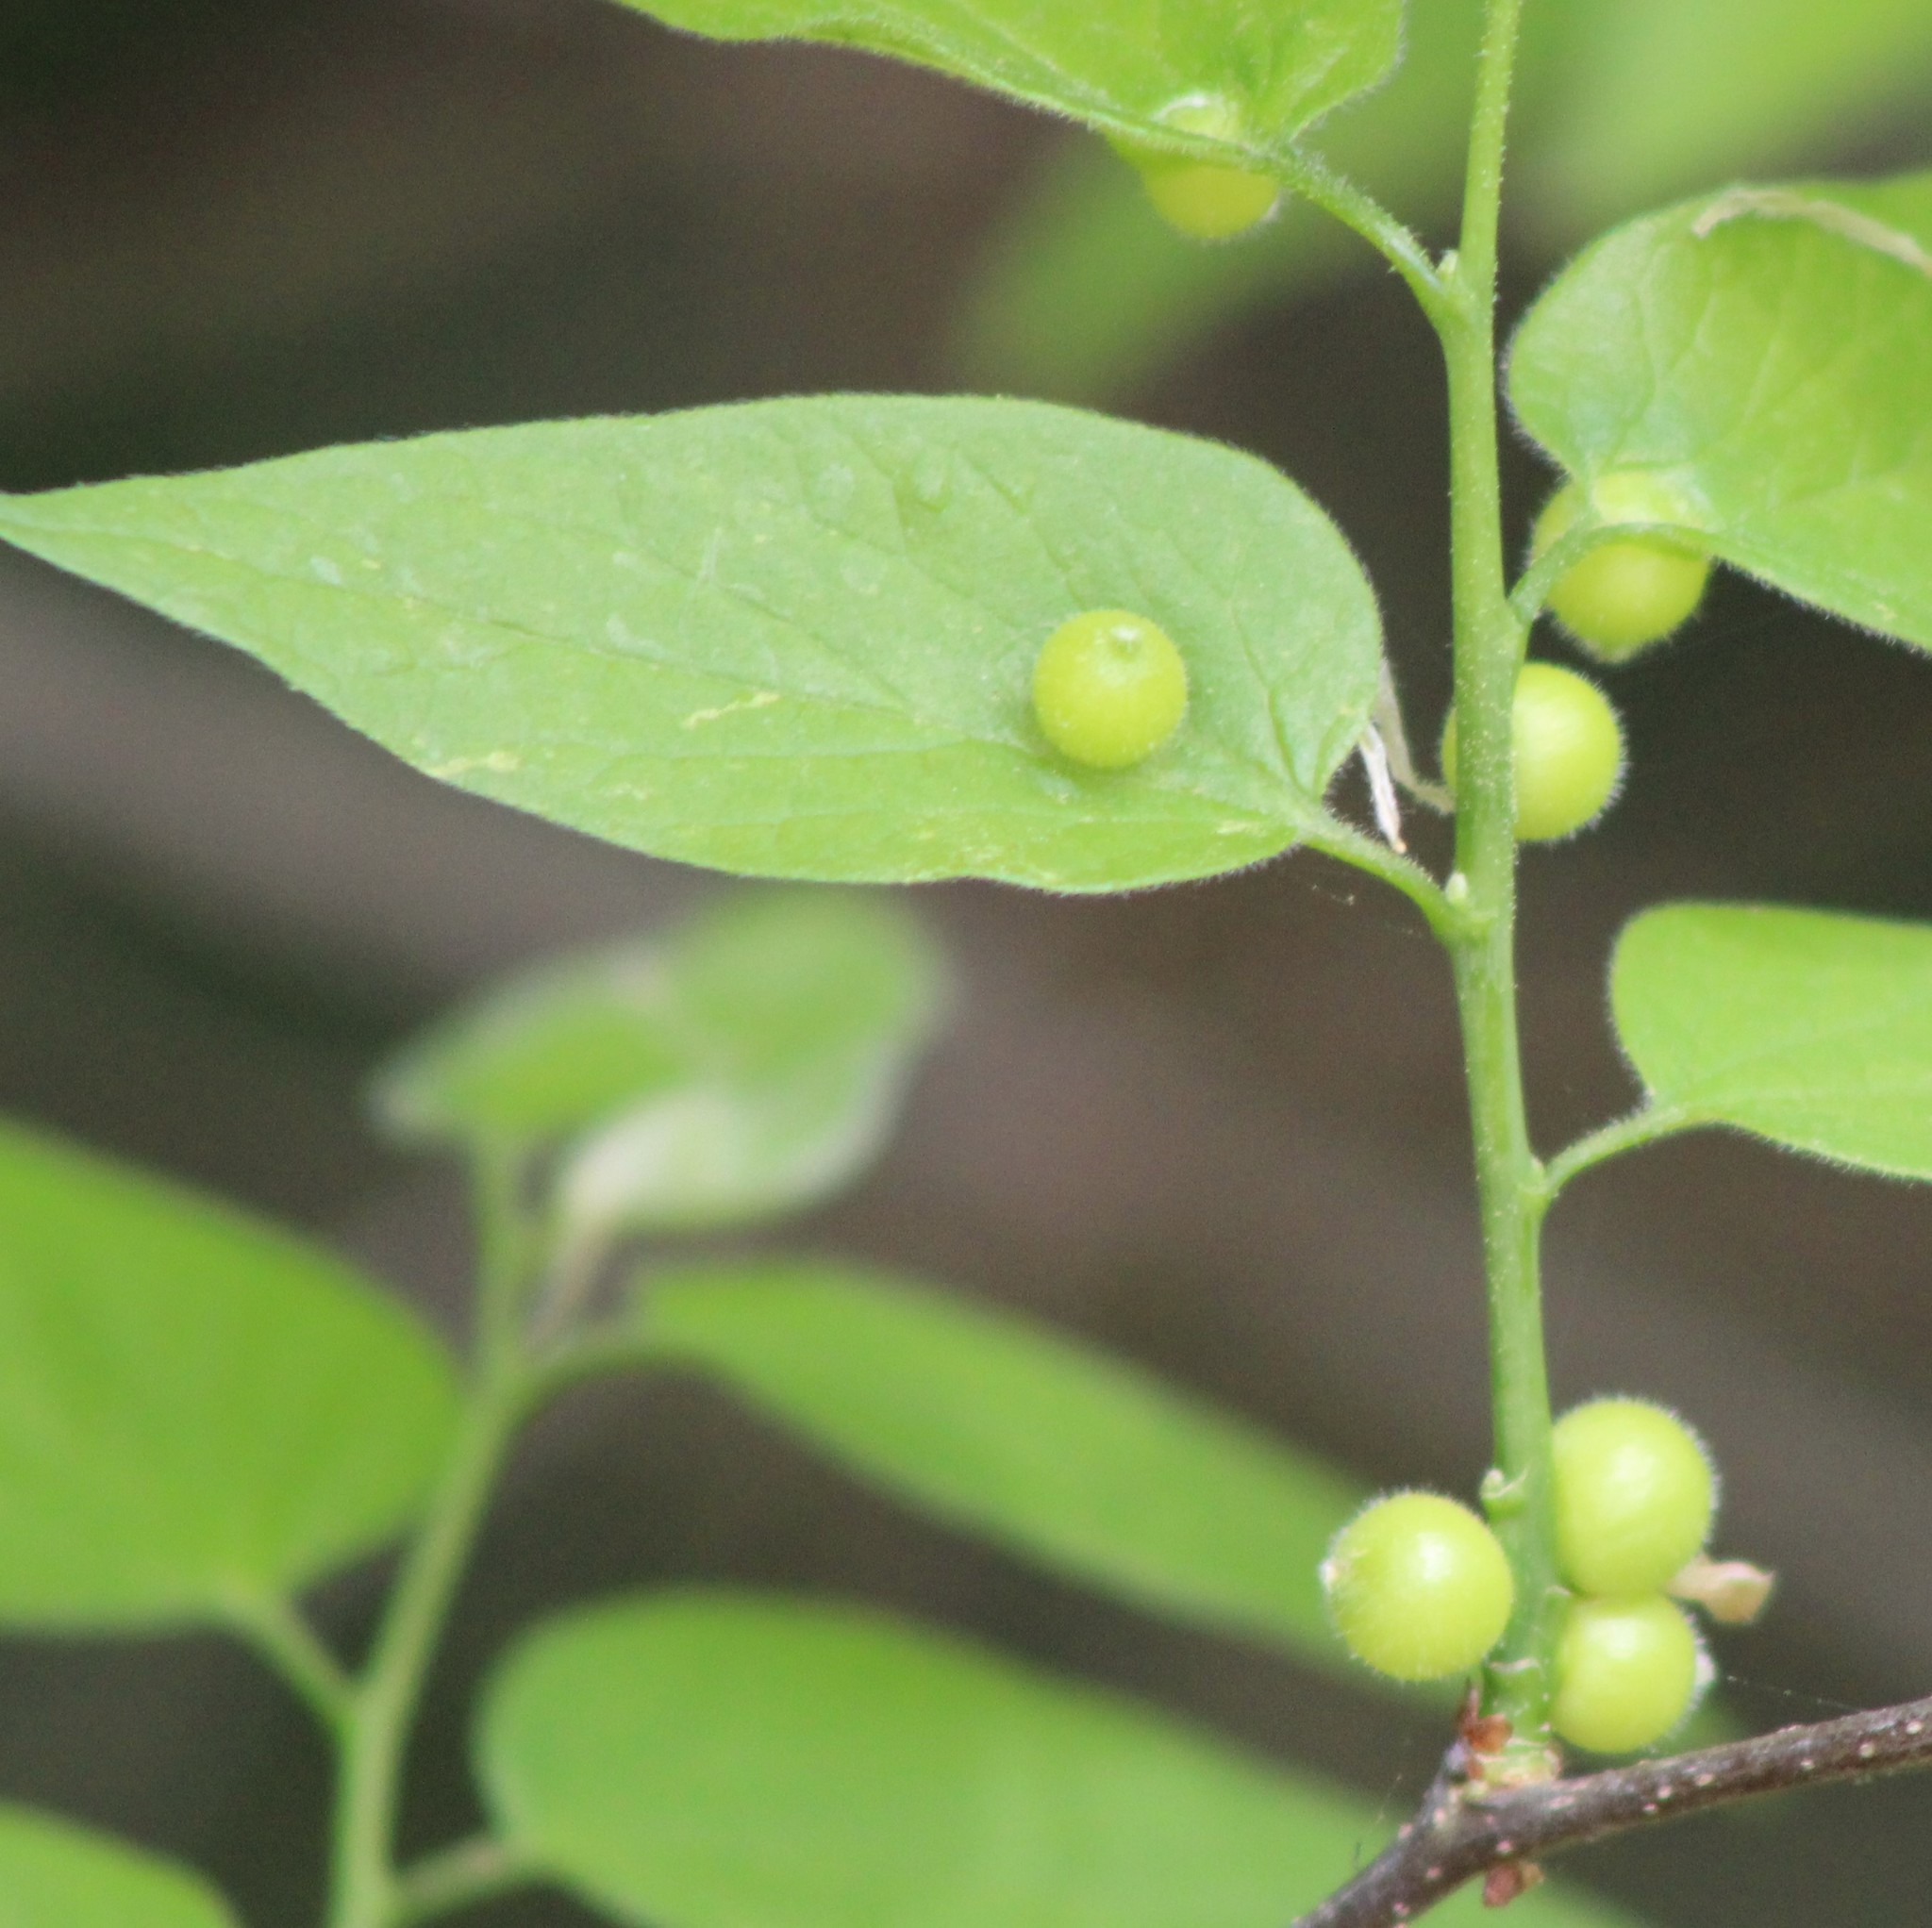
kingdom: Animalia
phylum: Arthropoda
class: Insecta
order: Diptera
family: Cecidomyiidae
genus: Celticecis
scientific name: Celticecis oviformis
